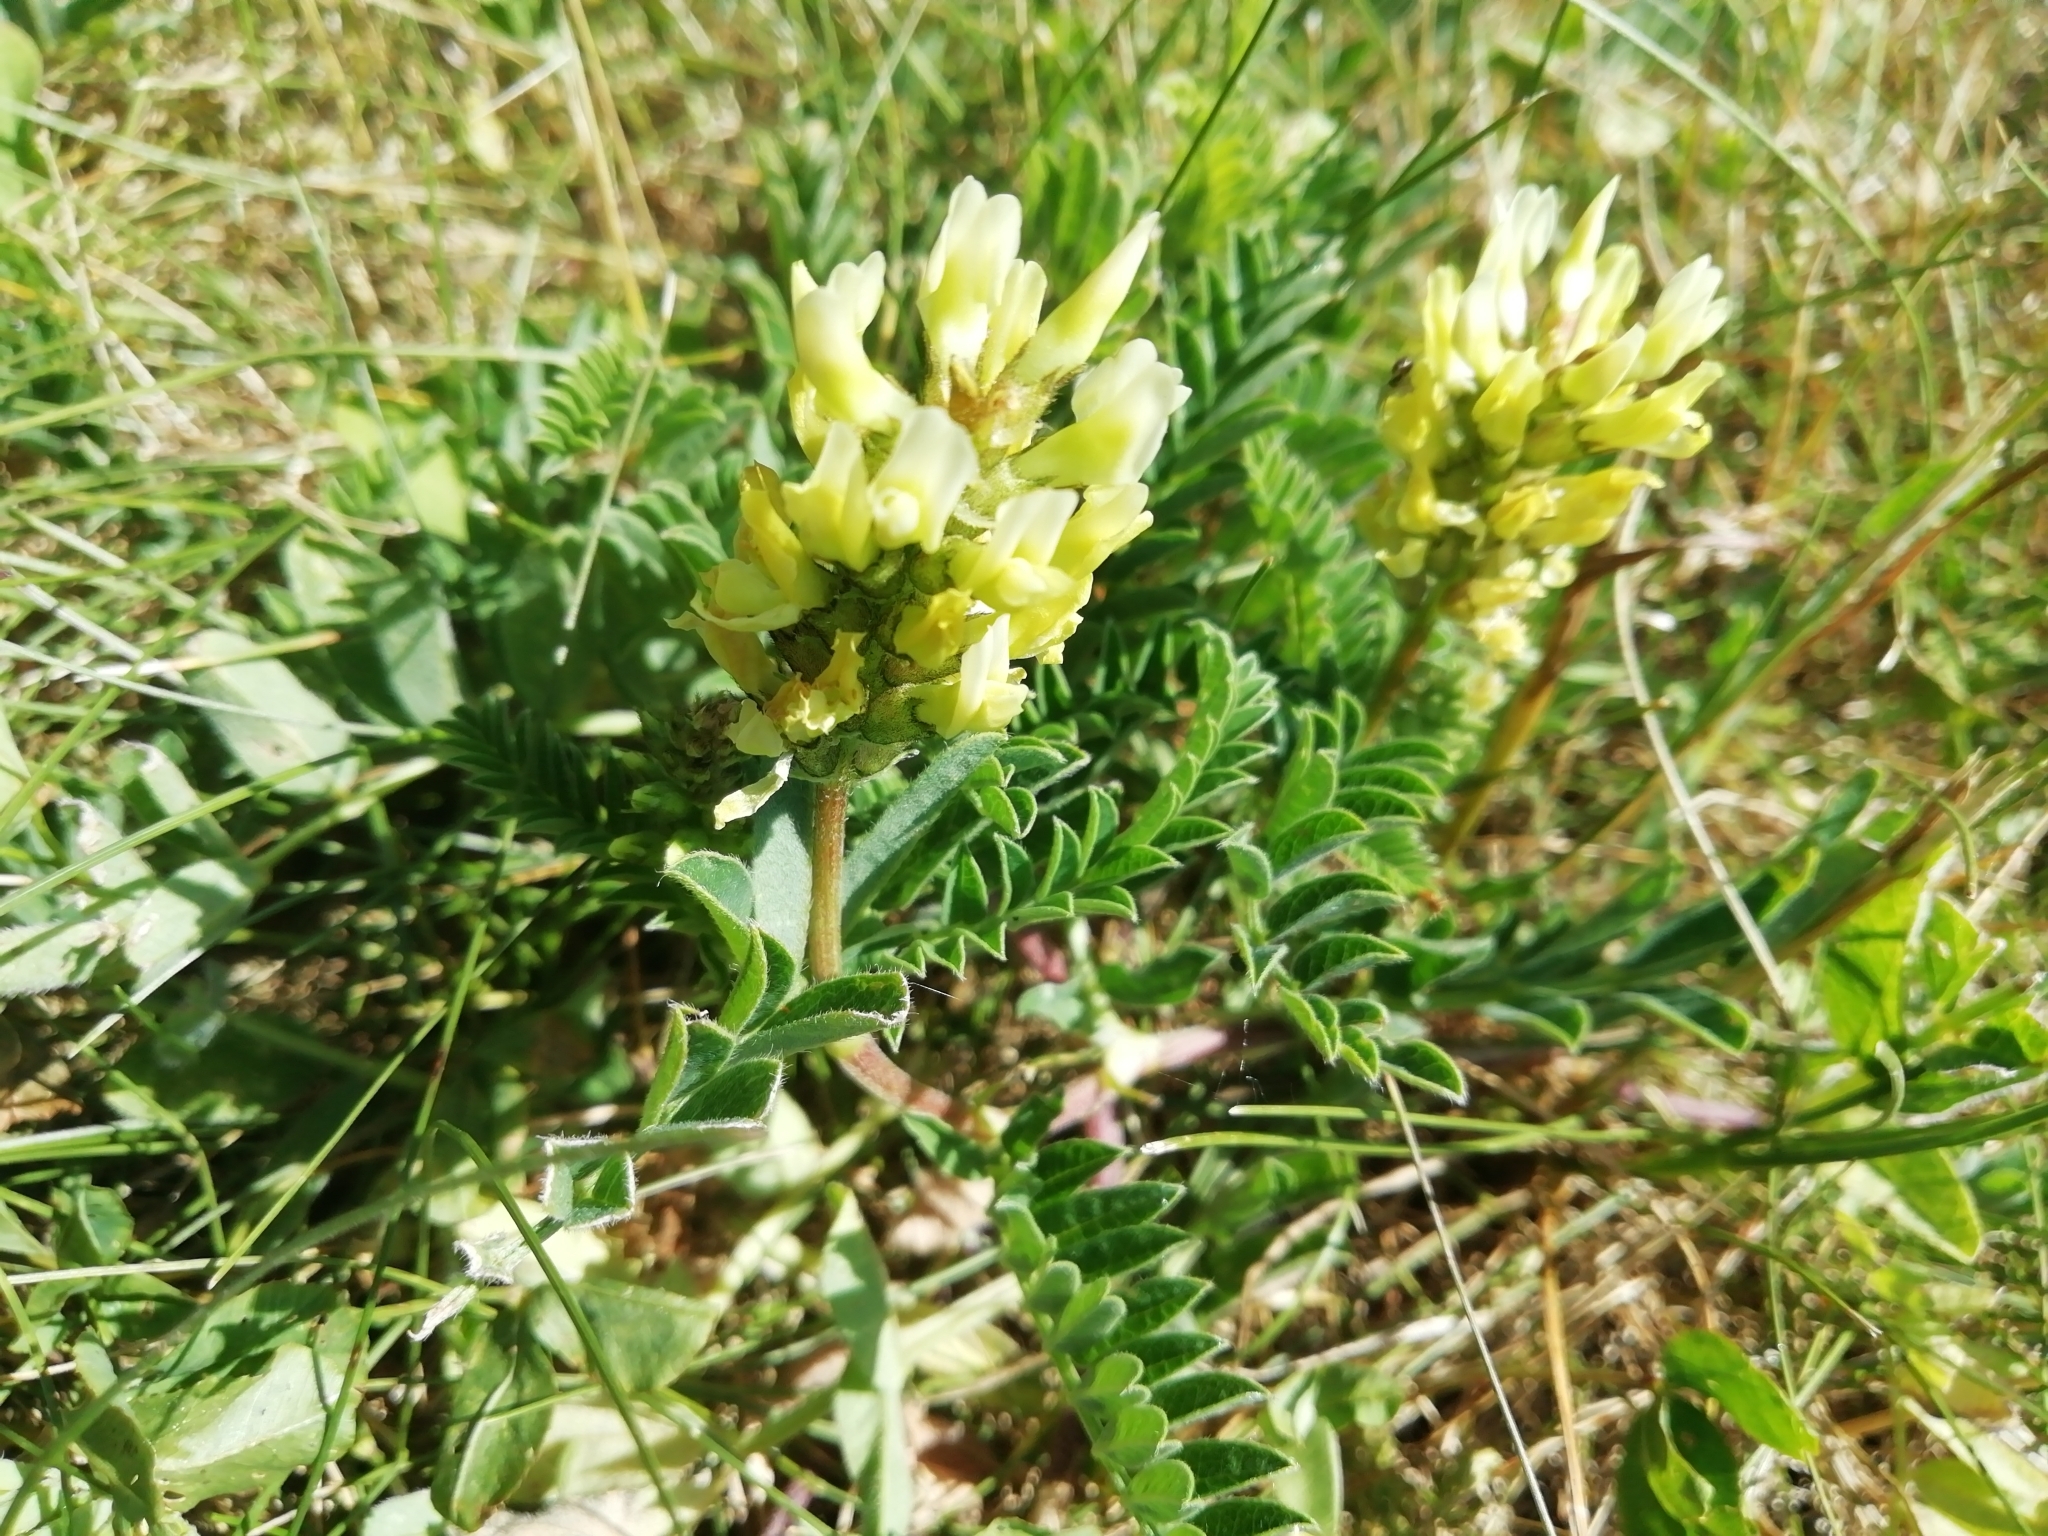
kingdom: Plantae
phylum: Tracheophyta
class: Magnoliopsida
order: Fabales
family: Fabaceae
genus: Astragalus
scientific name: Astragalus cicer
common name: Chick-pea milk-vetch
